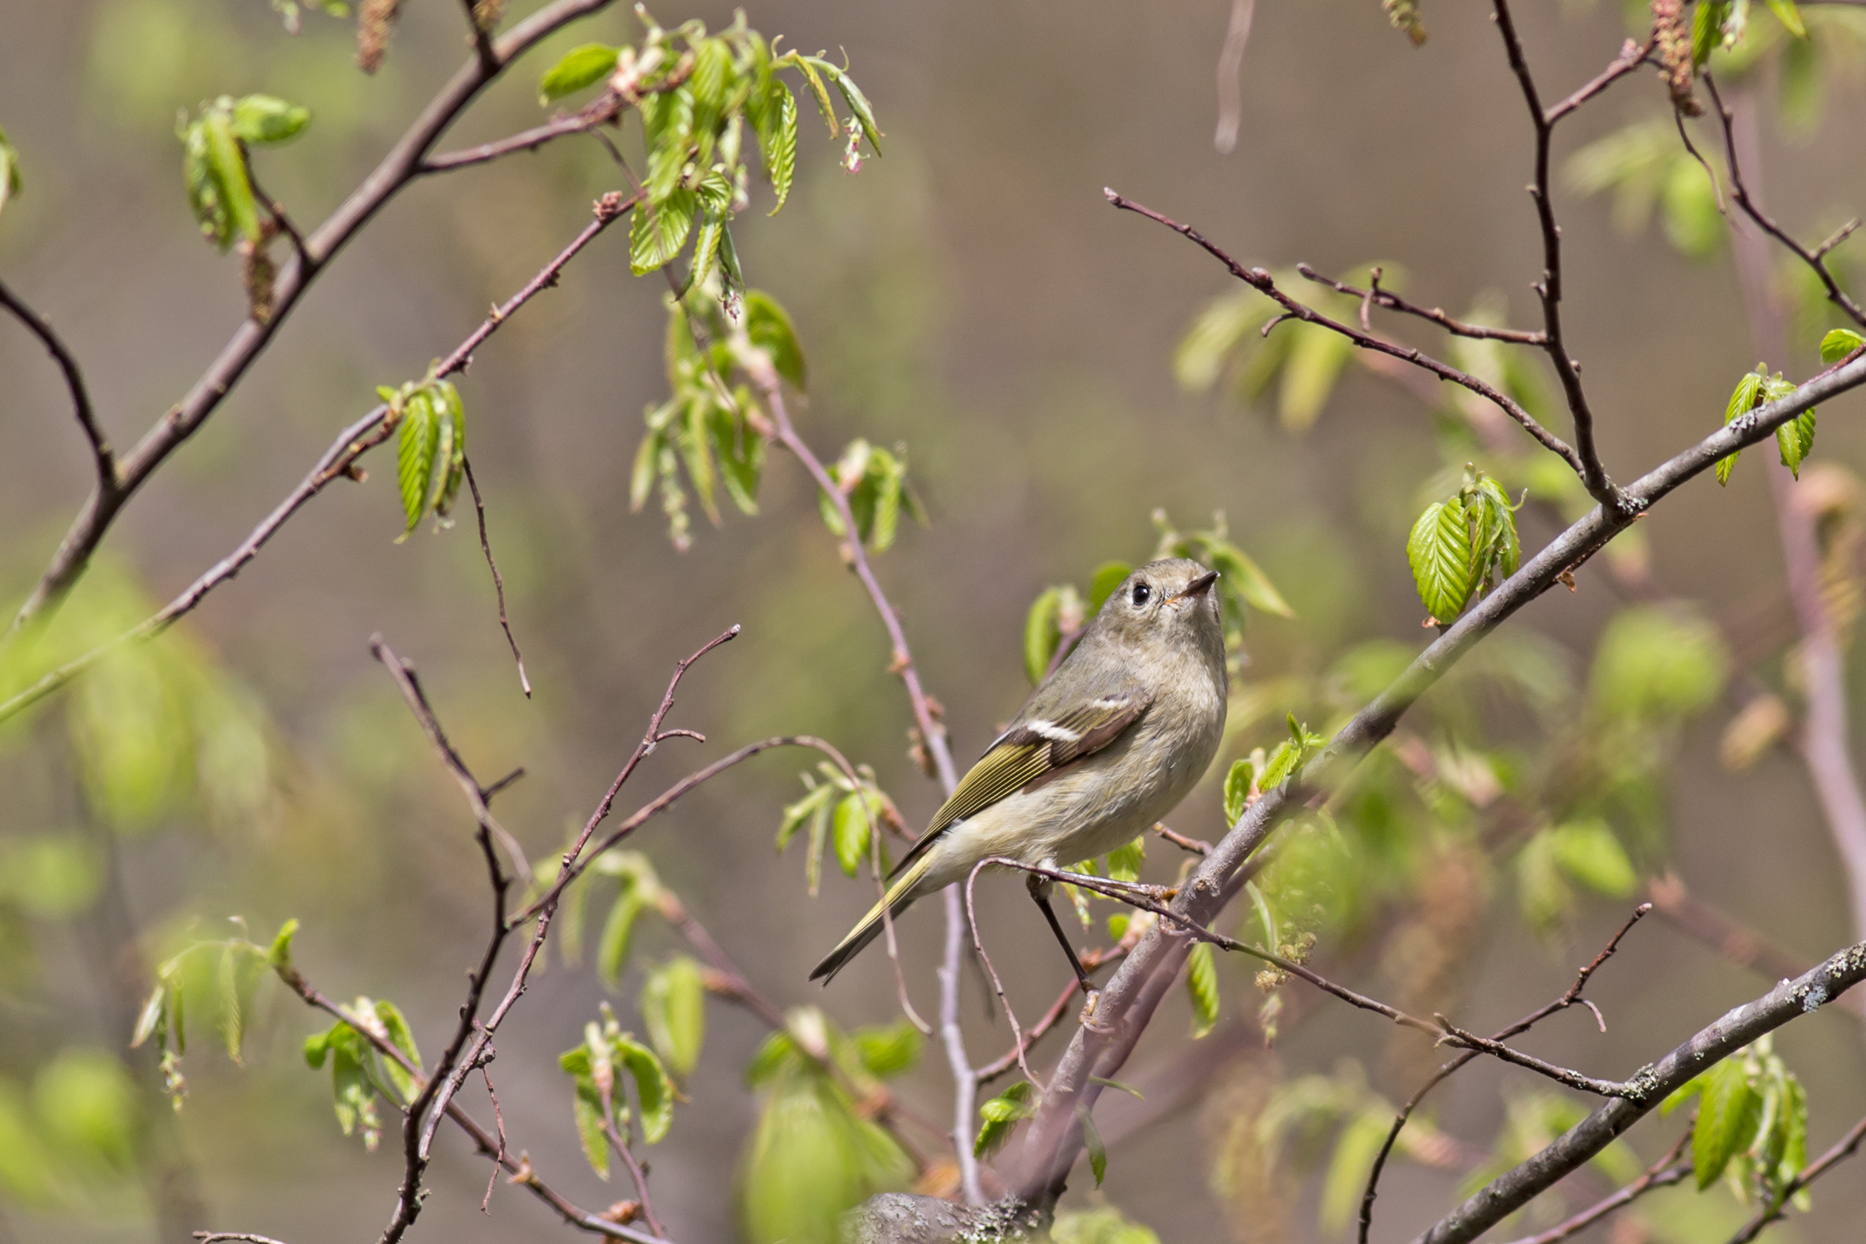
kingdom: Animalia
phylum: Chordata
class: Aves
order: Passeriformes
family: Regulidae
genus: Regulus
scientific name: Regulus calendula
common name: Ruby-crowned kinglet
